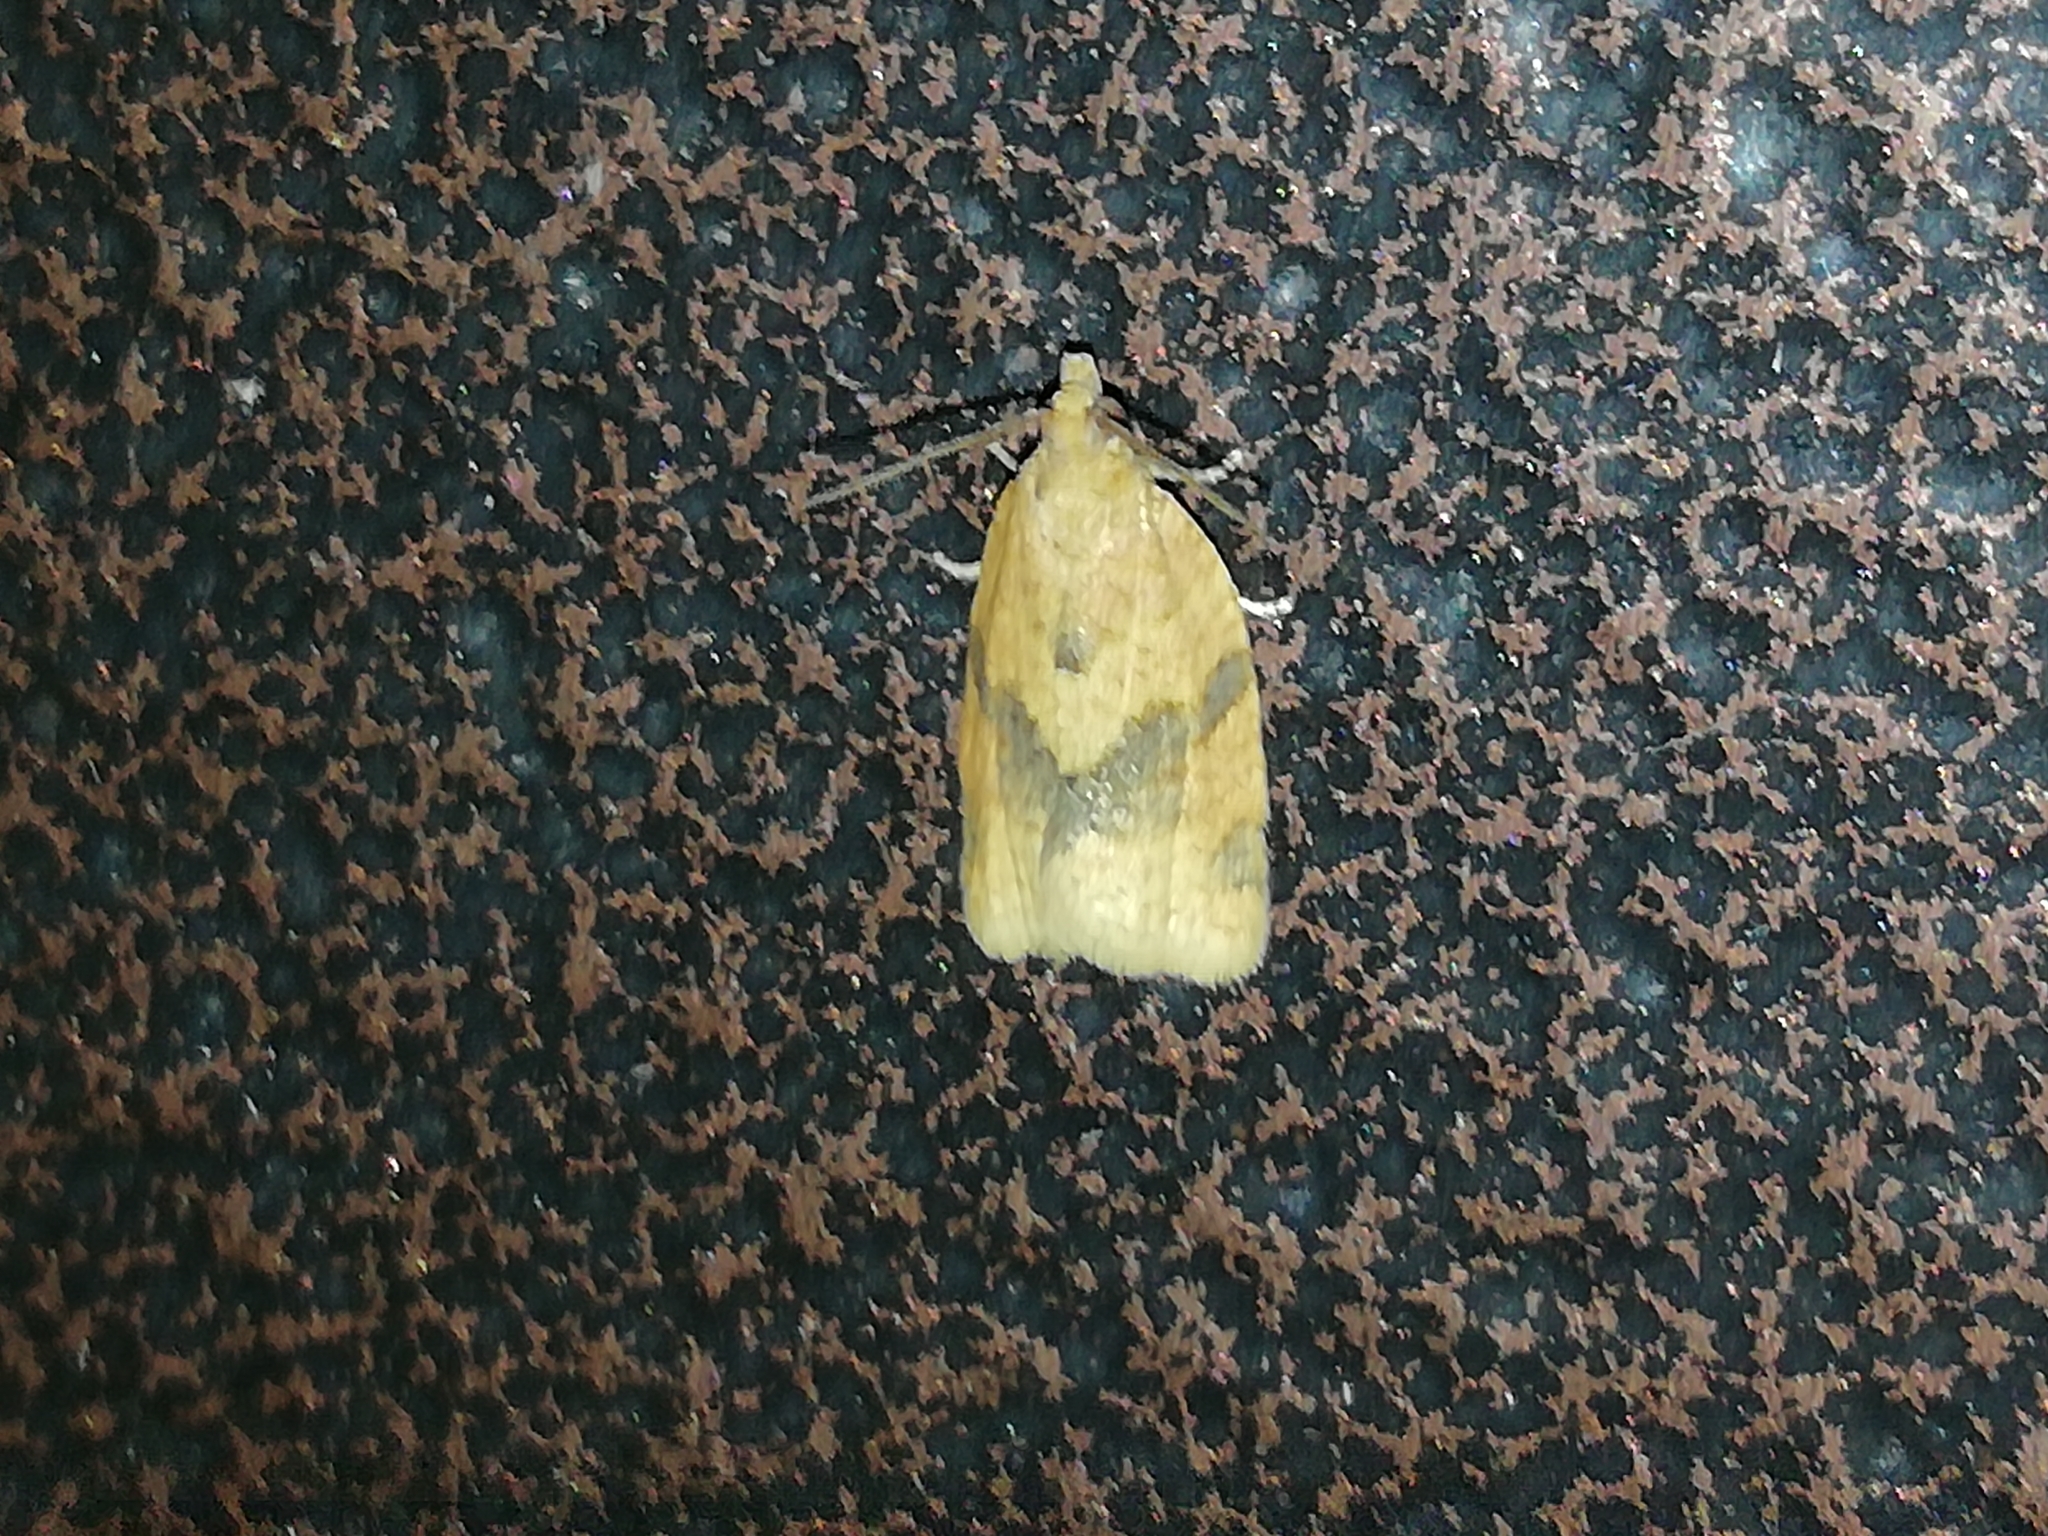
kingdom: Animalia
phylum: Arthropoda
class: Insecta
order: Lepidoptera
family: Tortricidae
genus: Epagoge
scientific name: Epagoge grotiana
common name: Brown-barred twist
